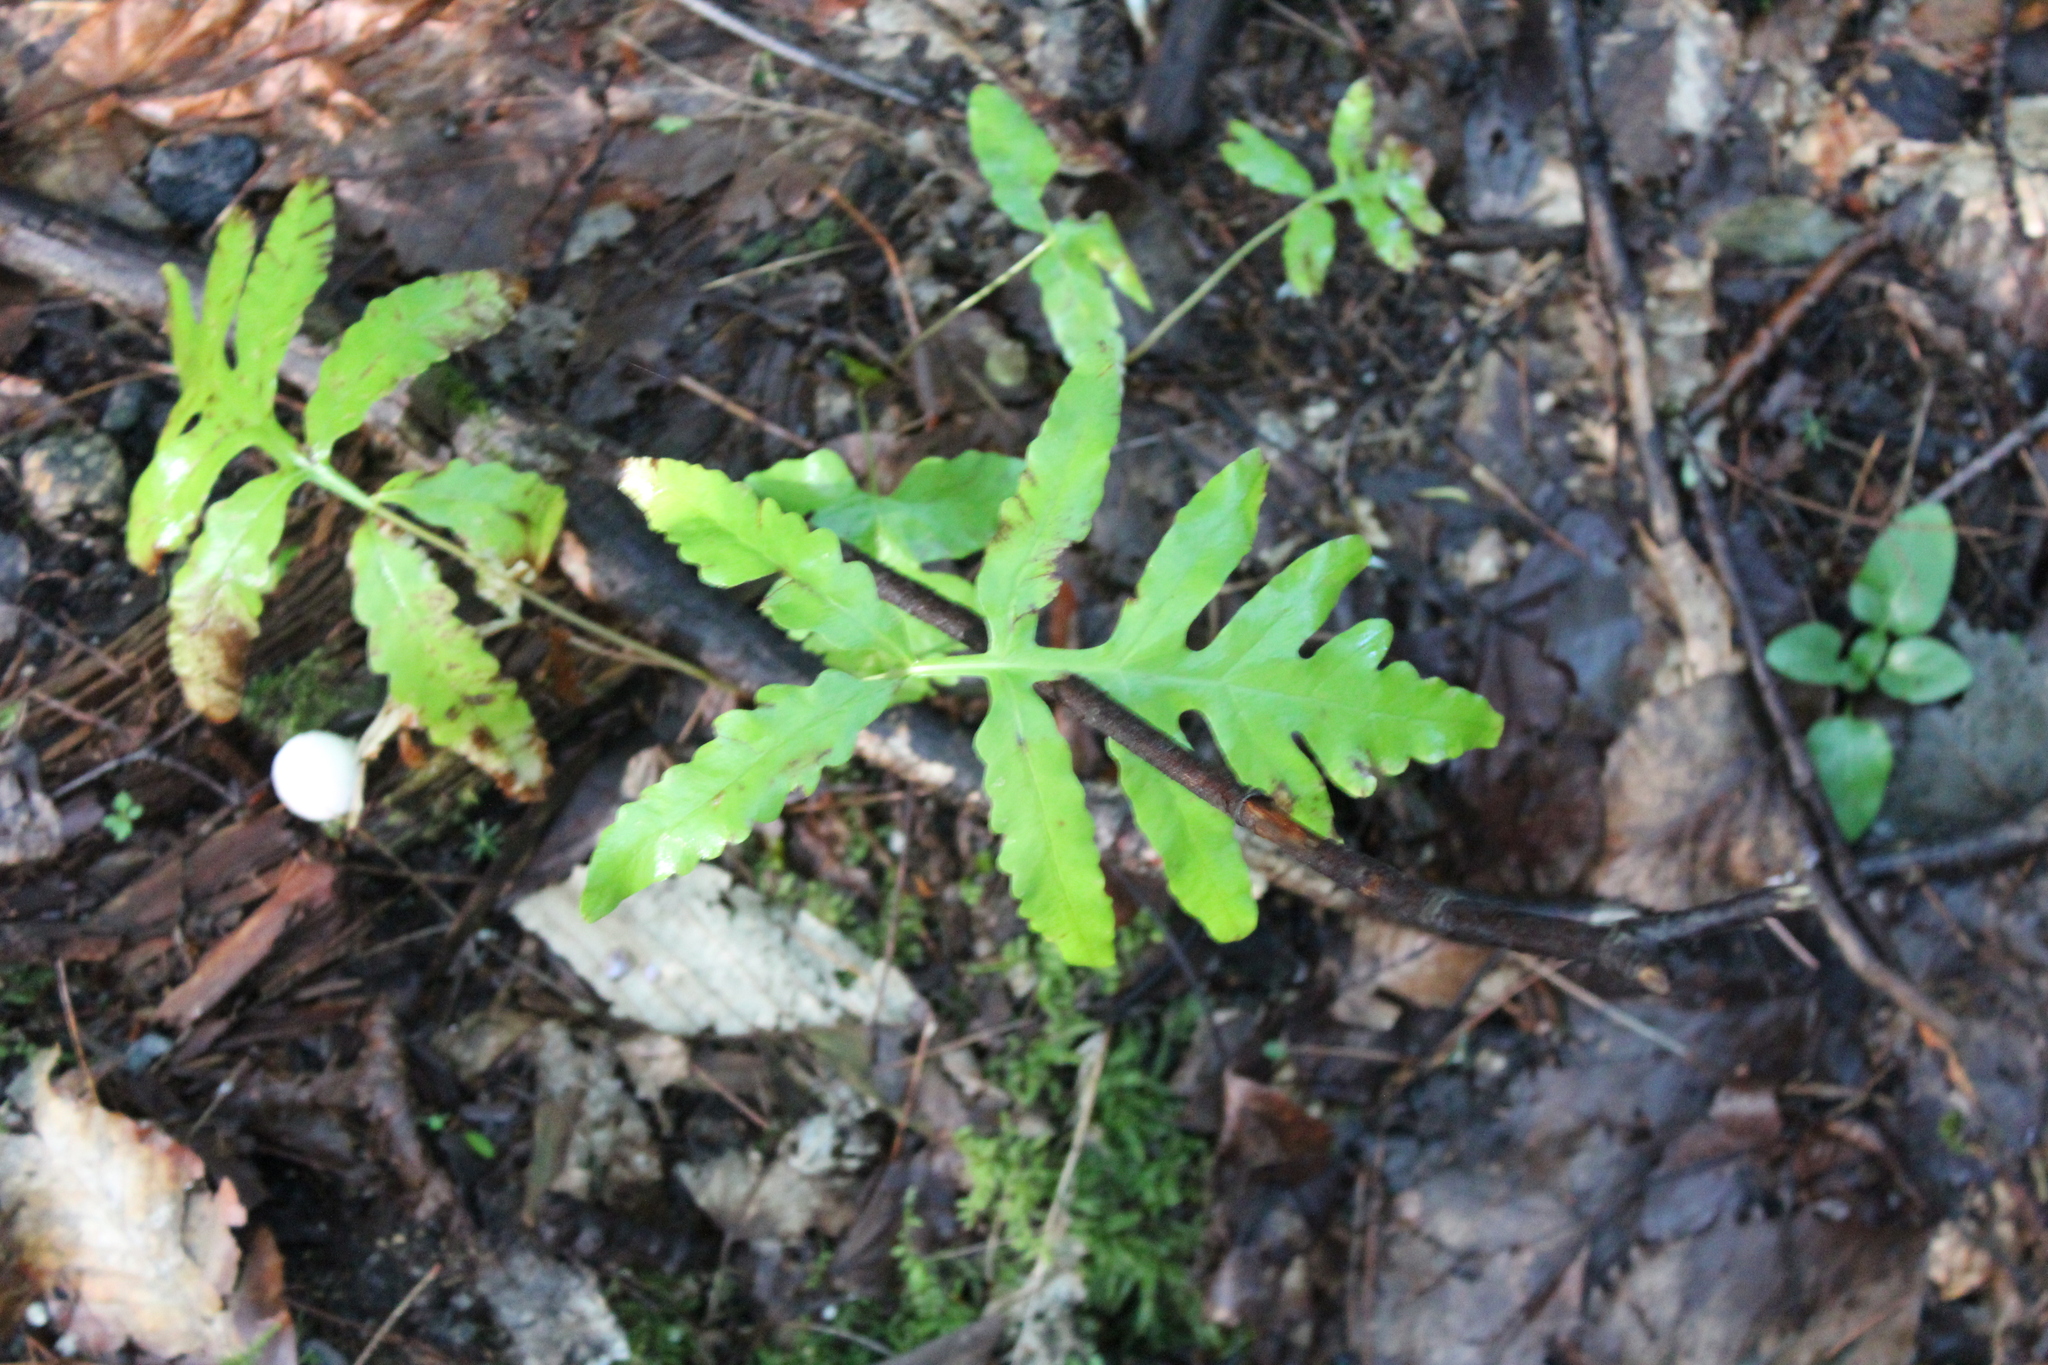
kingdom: Plantae
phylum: Tracheophyta
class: Polypodiopsida
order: Polypodiales
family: Onocleaceae
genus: Onoclea
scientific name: Onoclea sensibilis
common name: Sensitive fern
